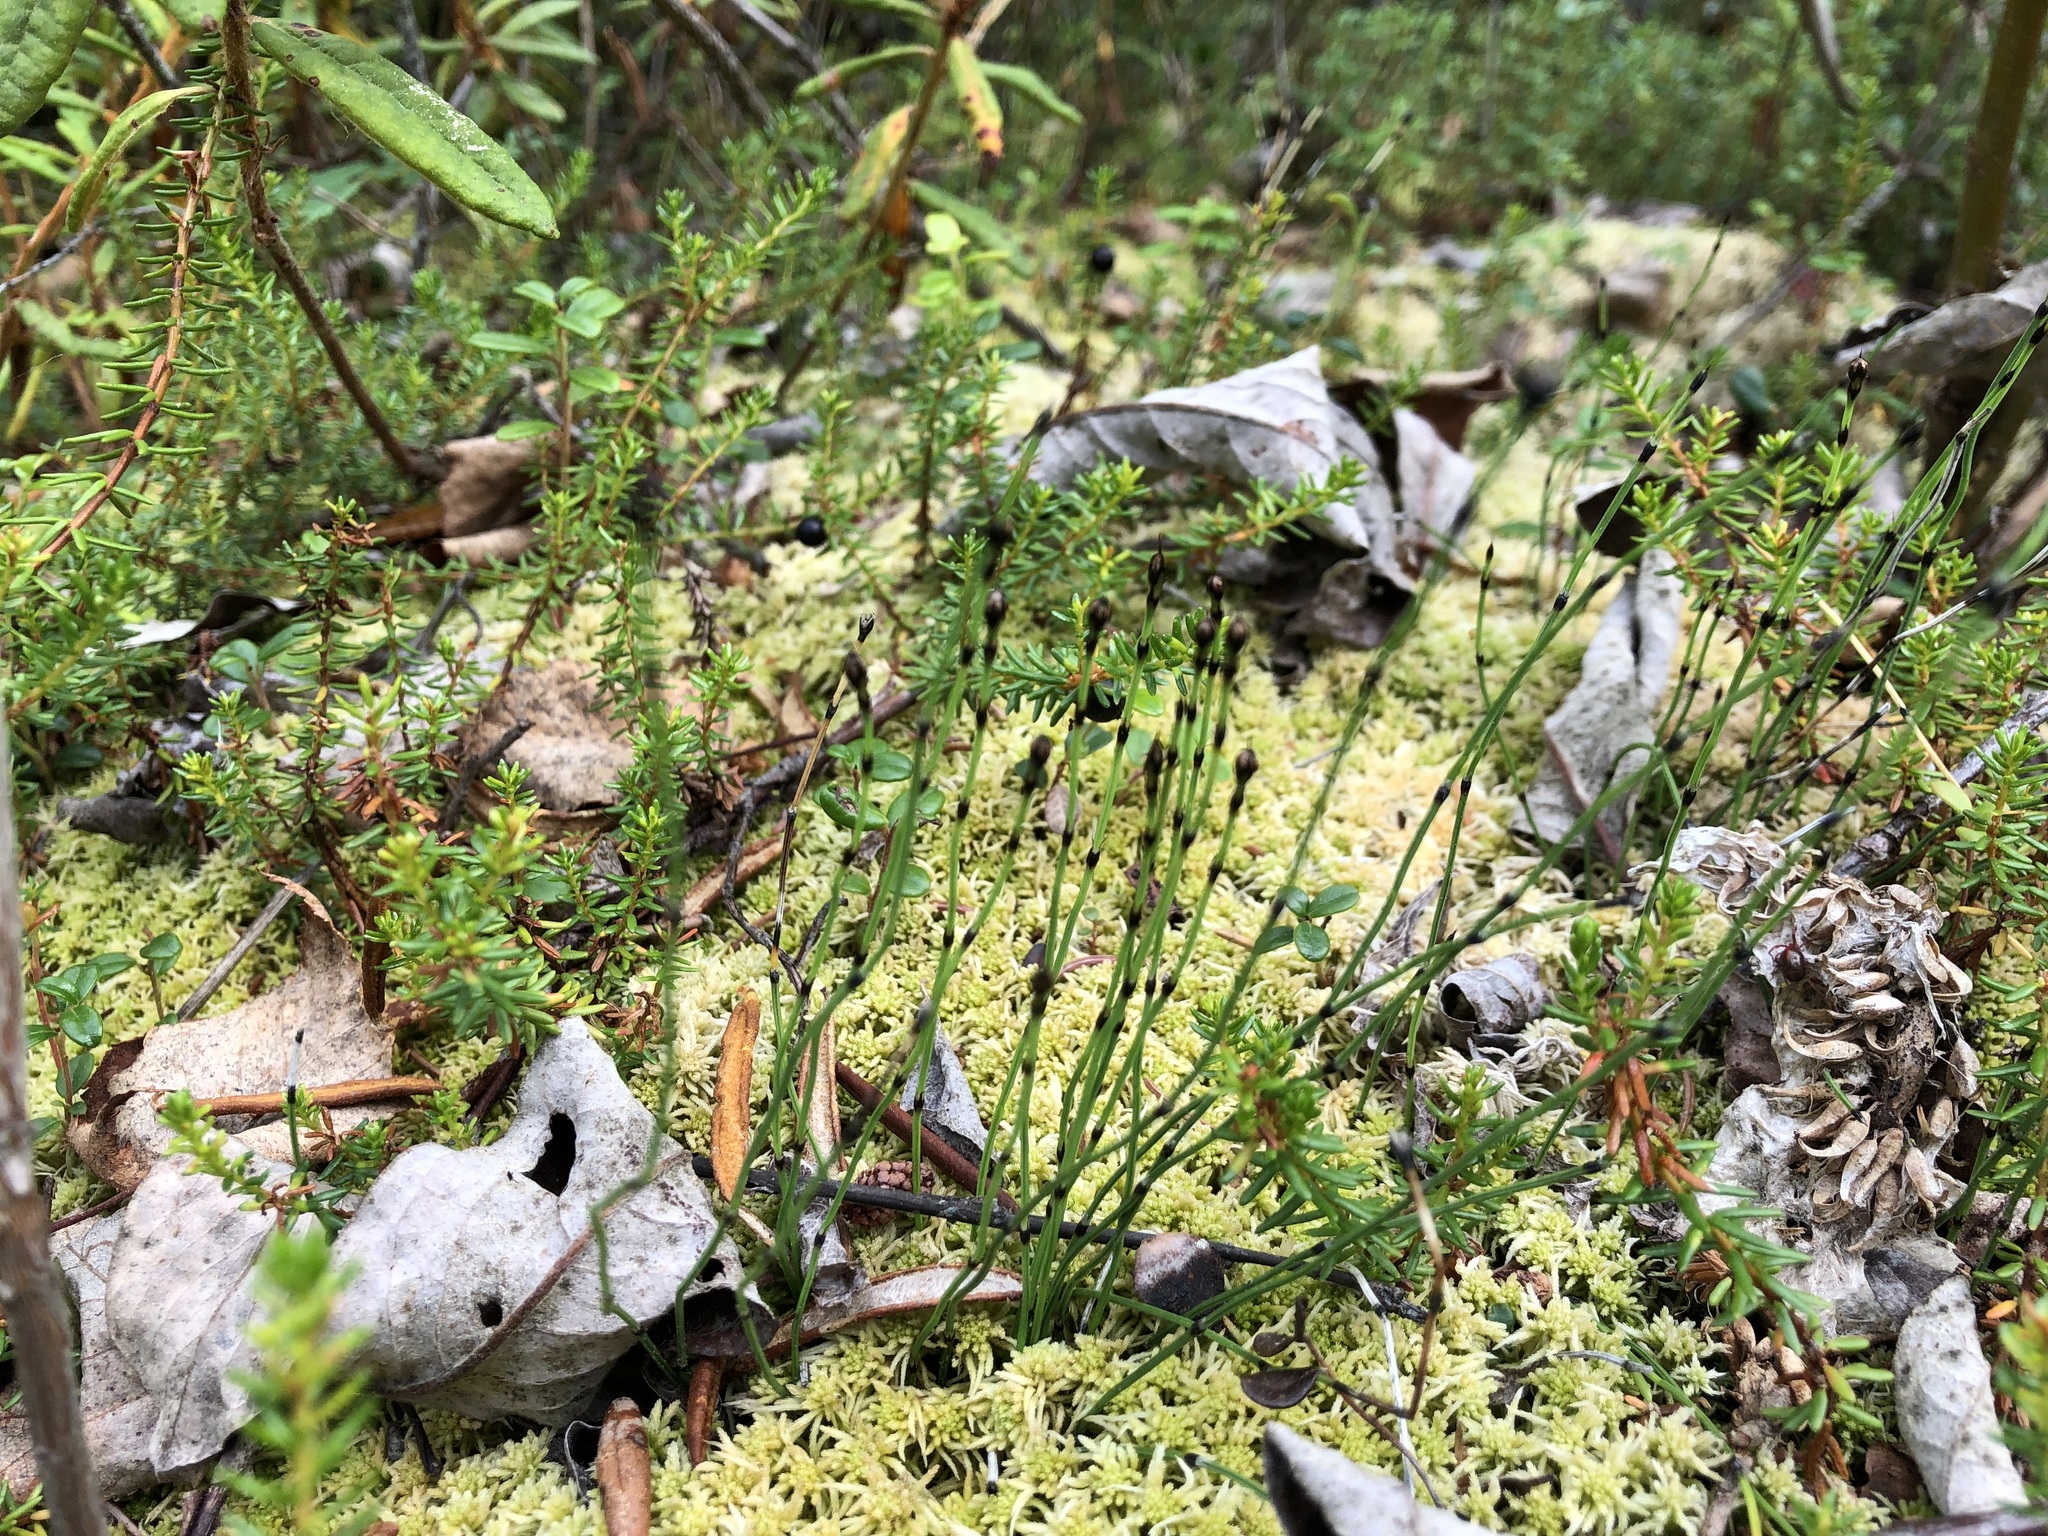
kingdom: Plantae
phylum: Tracheophyta
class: Polypodiopsida
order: Equisetales
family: Equisetaceae
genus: Equisetum
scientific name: Equisetum scirpoides
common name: Delicate horsetail
